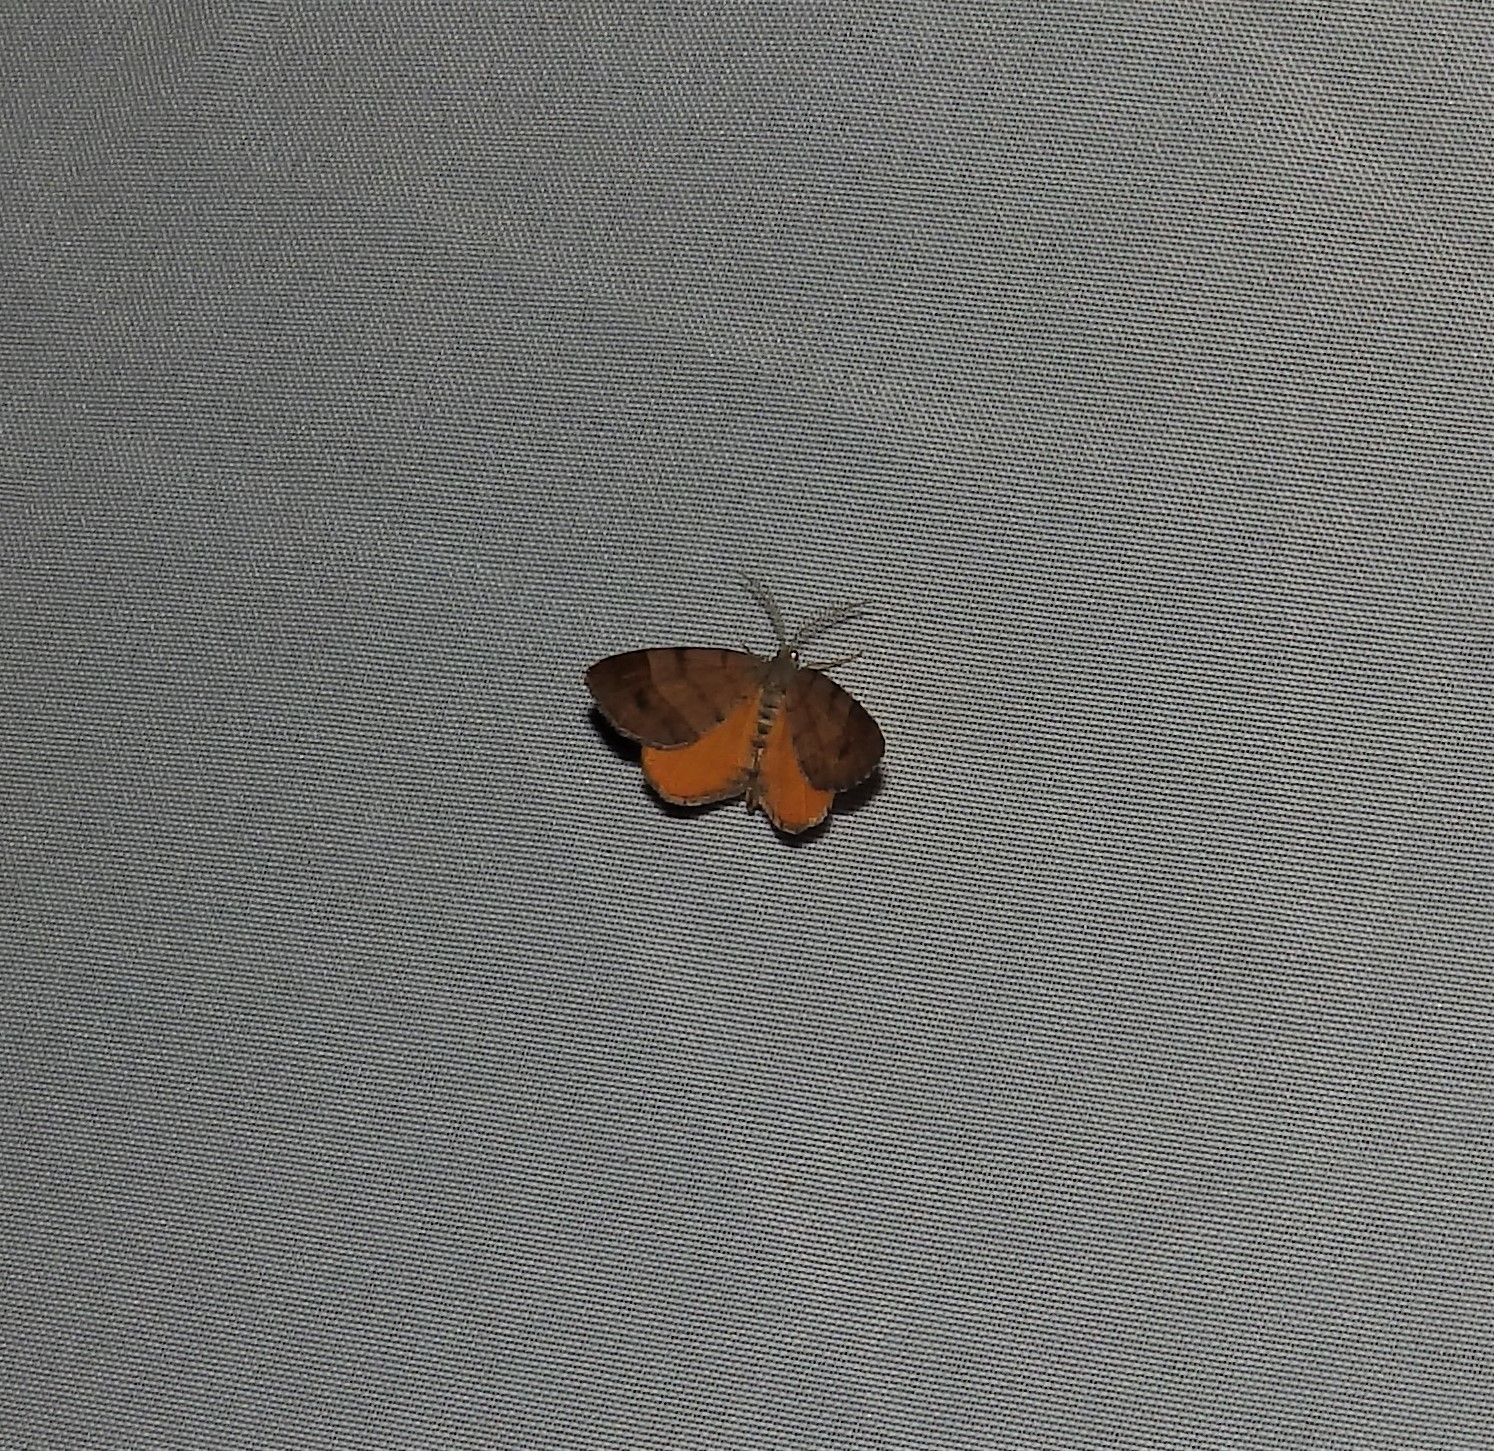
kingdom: Animalia
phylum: Arthropoda
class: Insecta
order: Lepidoptera
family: Geometridae
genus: Mellilla
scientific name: Mellilla xanthometata
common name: Orange wing moth
